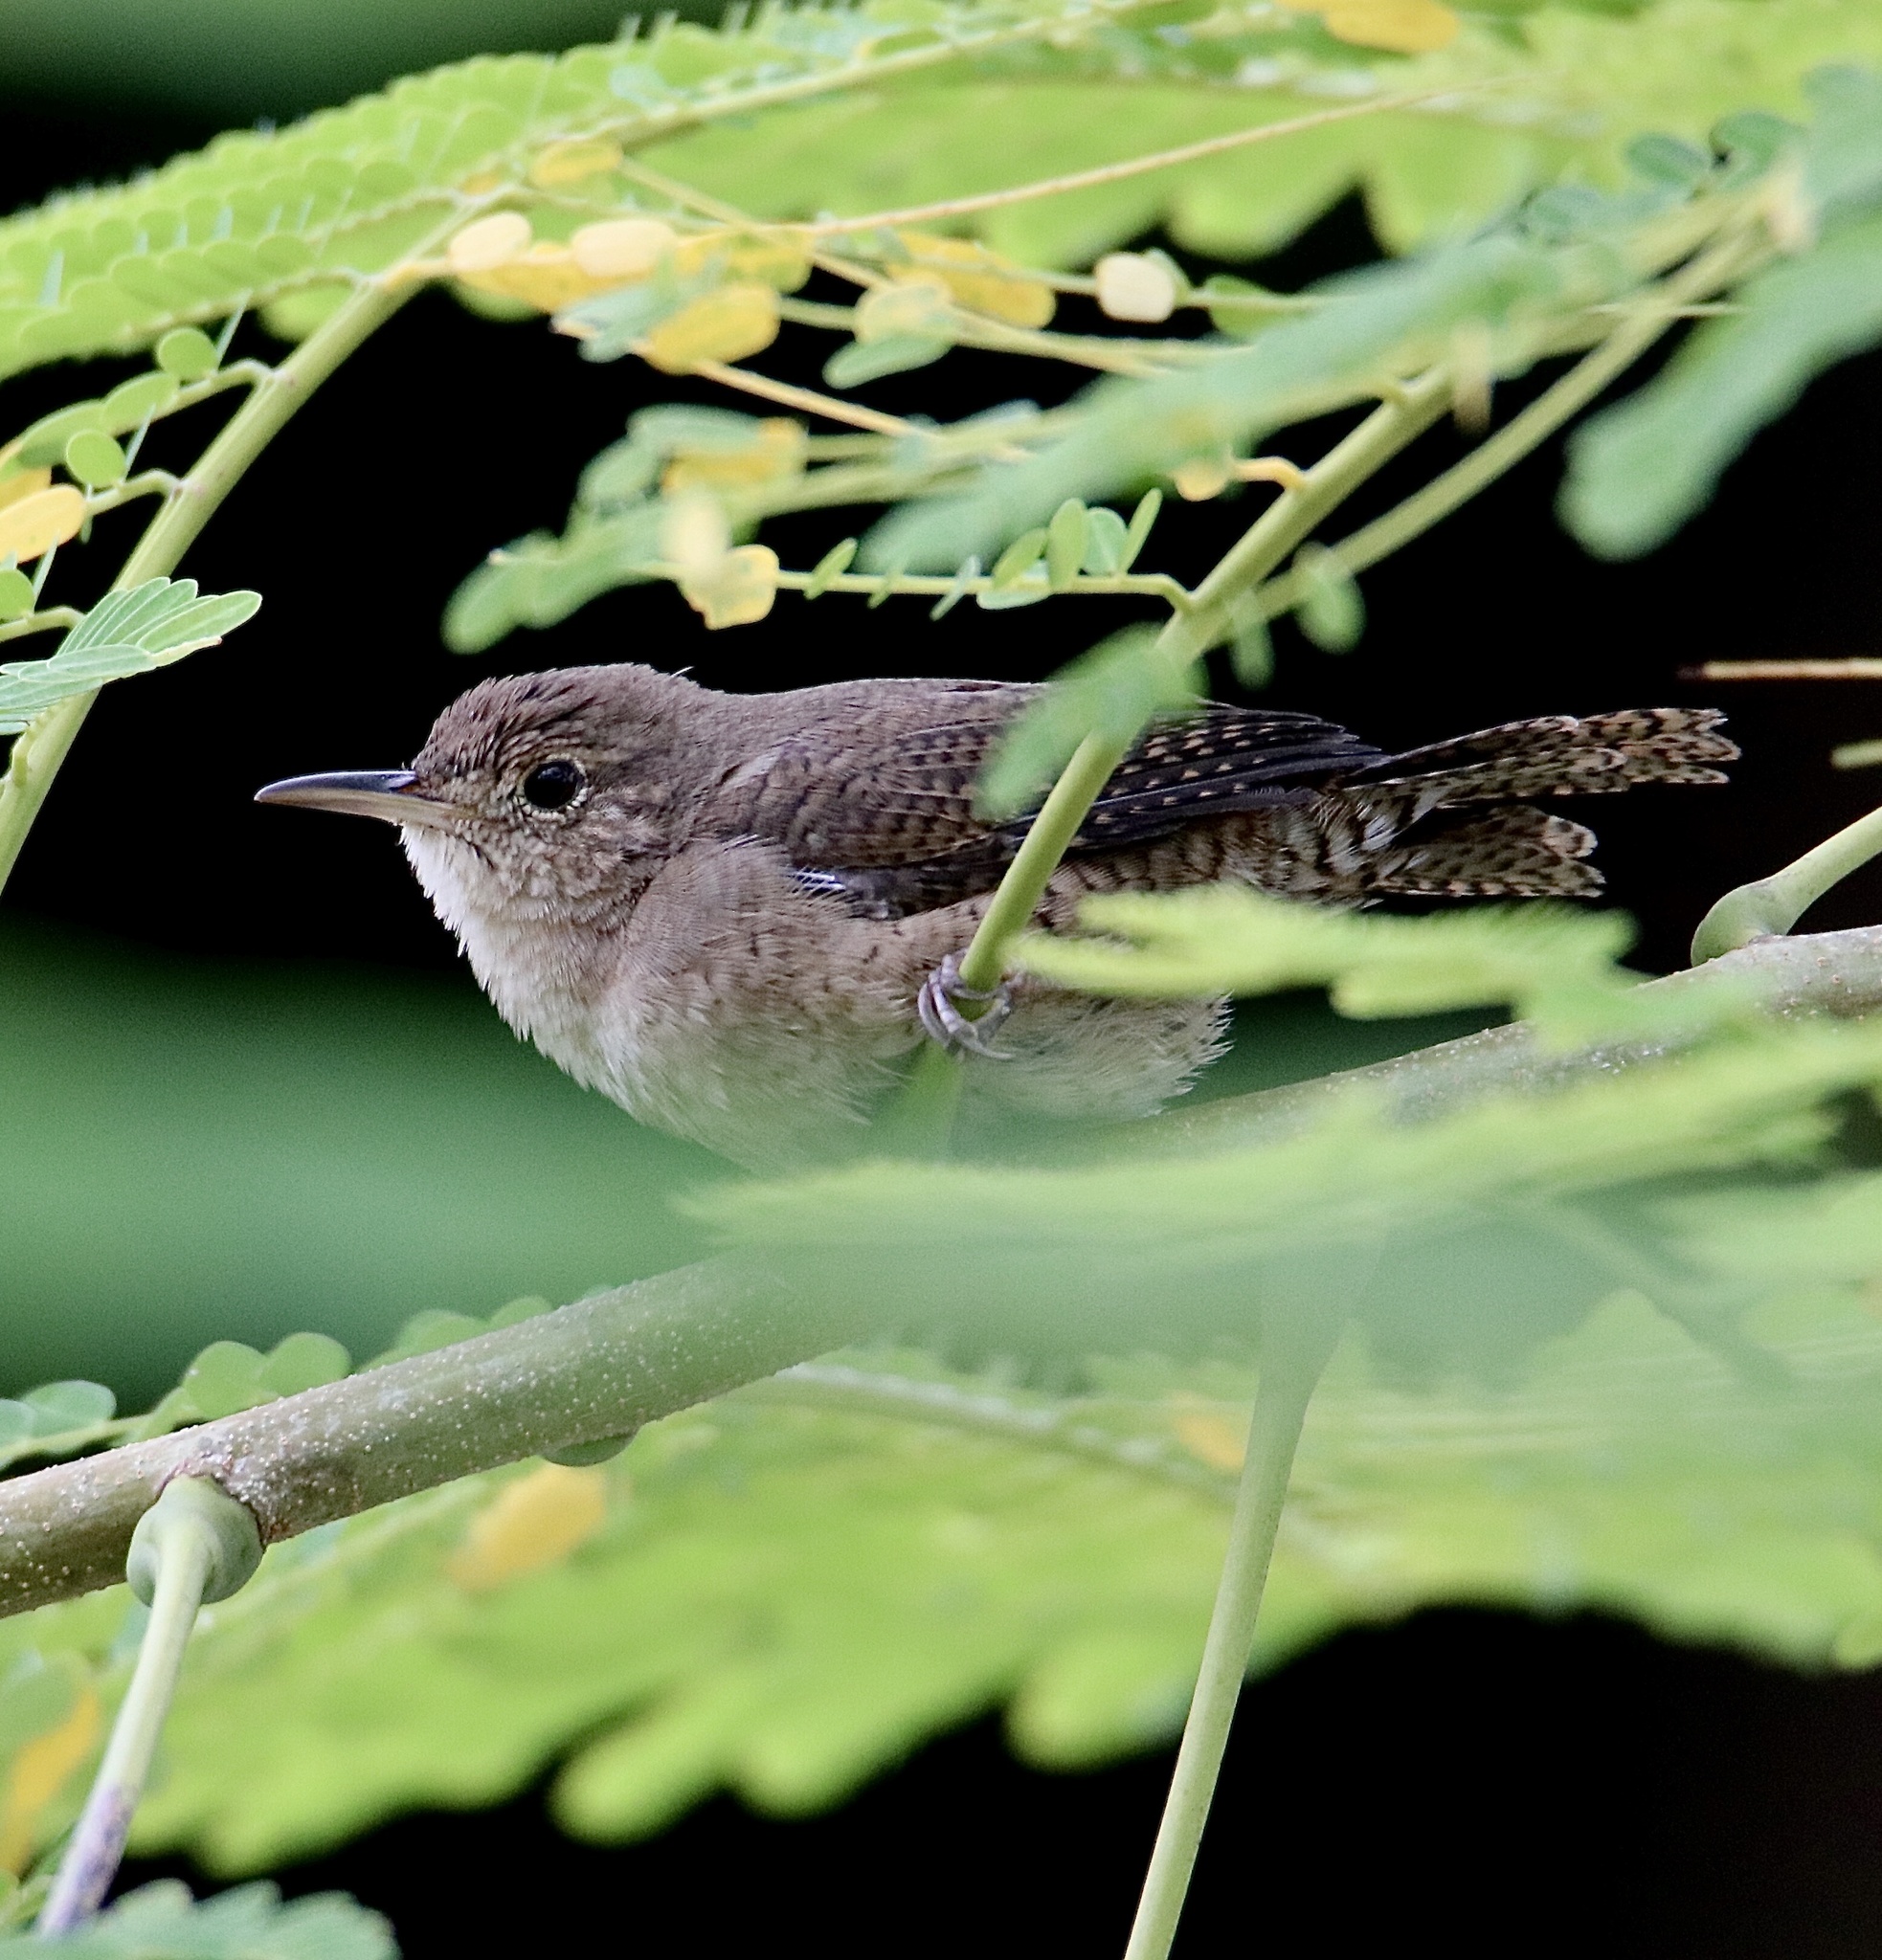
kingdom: Animalia
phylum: Chordata
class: Aves
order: Passeriformes
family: Troglodytidae
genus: Troglodytes
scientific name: Troglodytes aedon
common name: House wren
